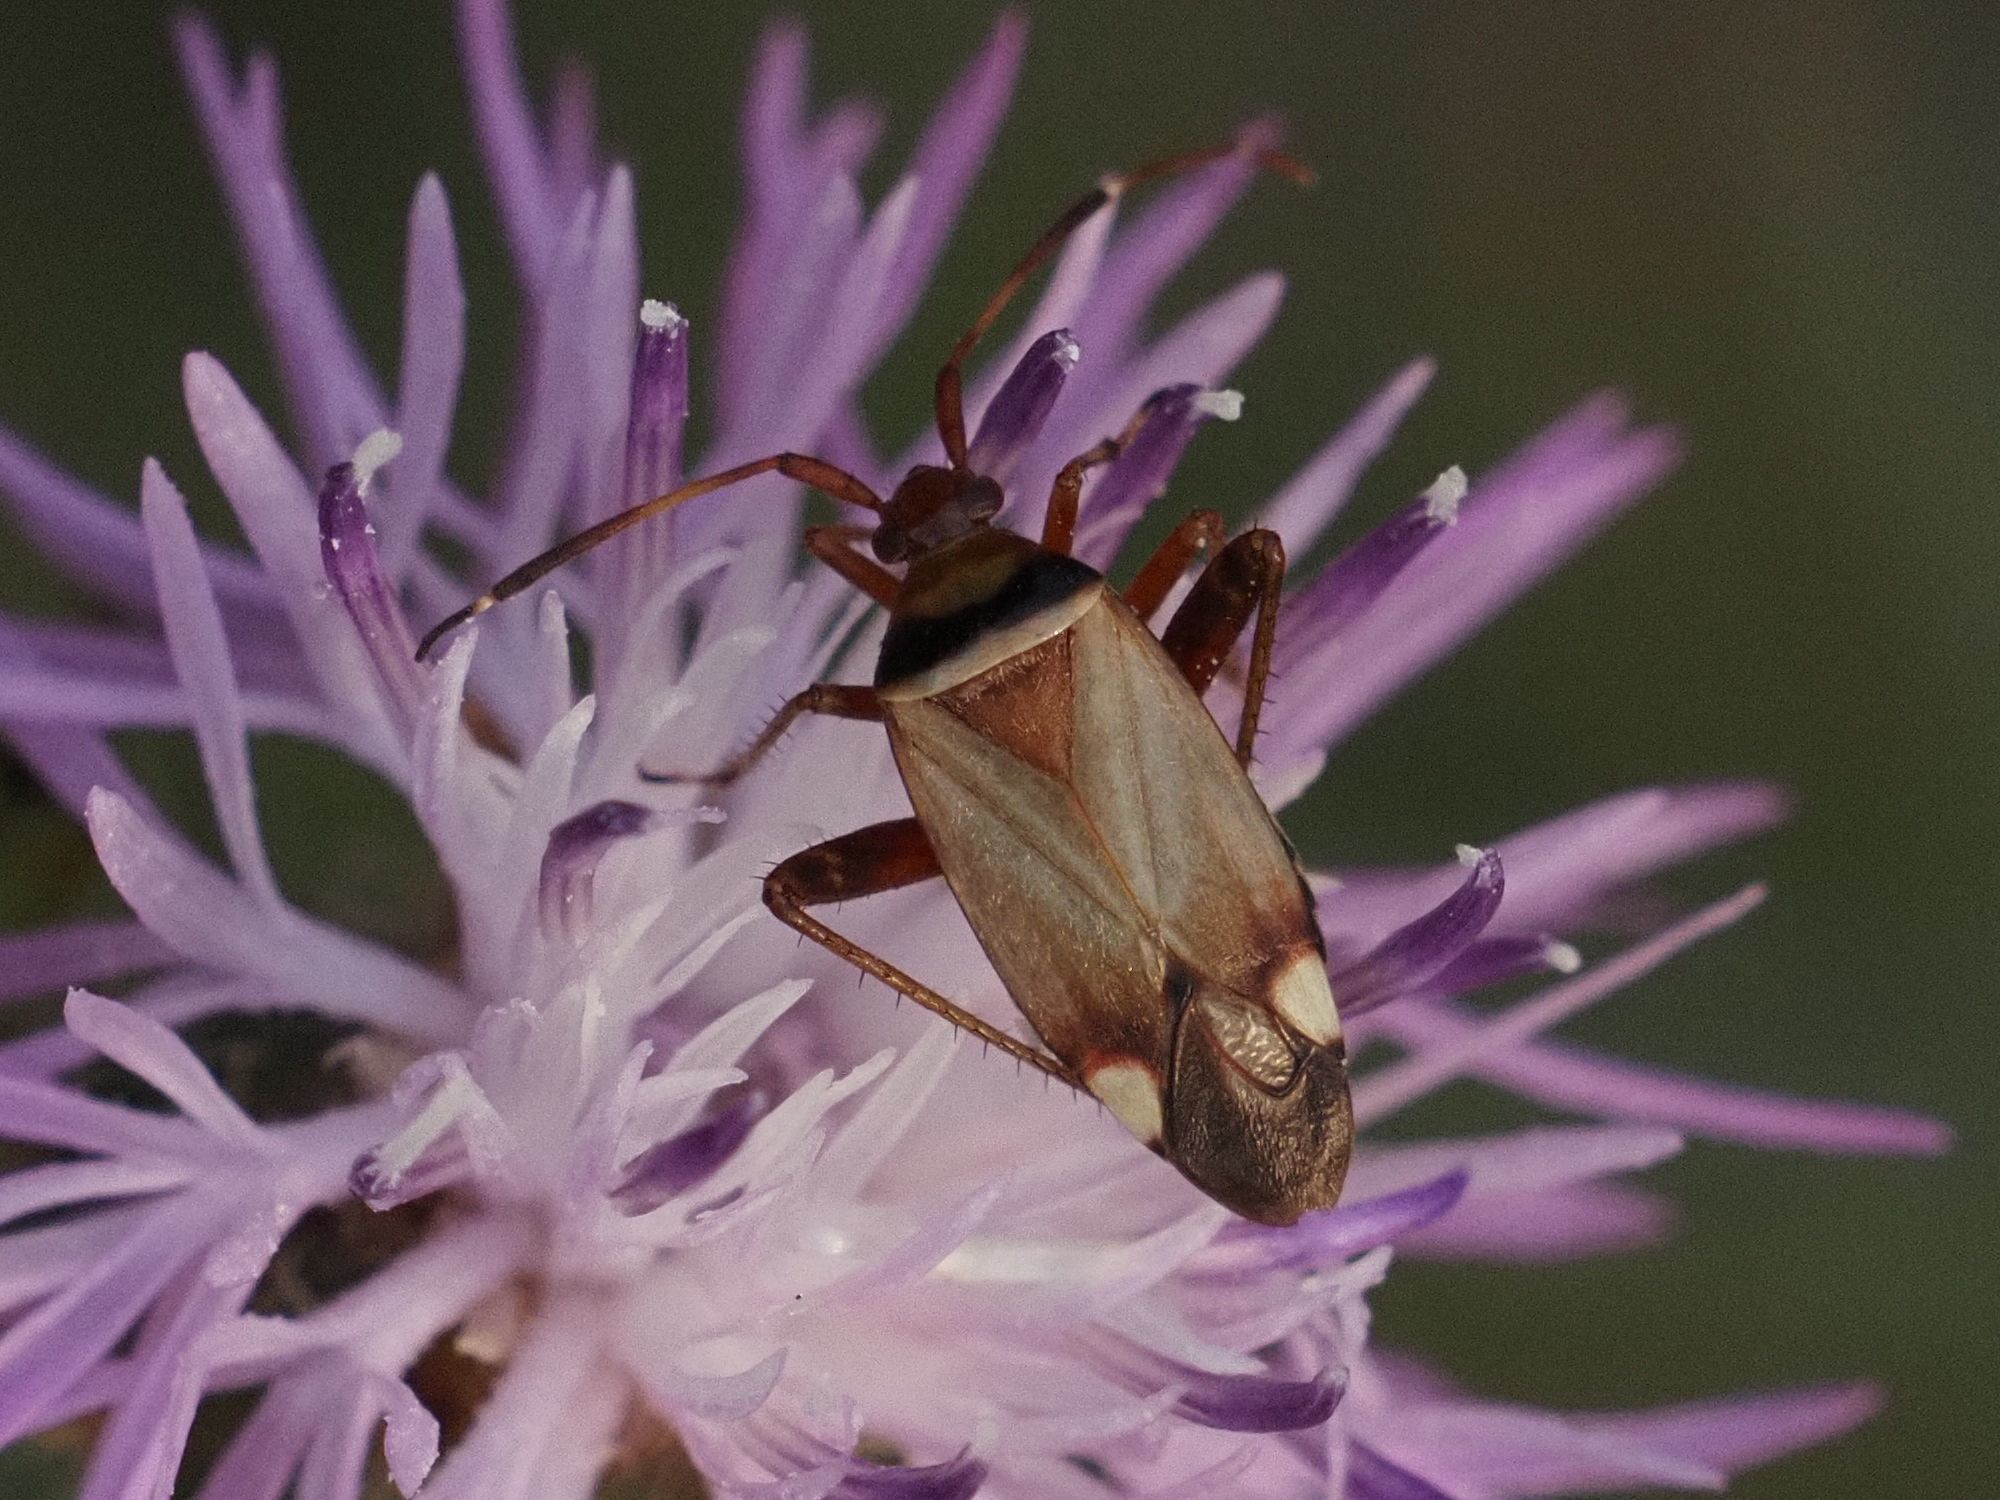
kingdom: Animalia
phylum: Arthropoda
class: Insecta
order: Hemiptera
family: Miridae
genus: Adelphocoris
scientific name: Adelphocoris vandalicus
